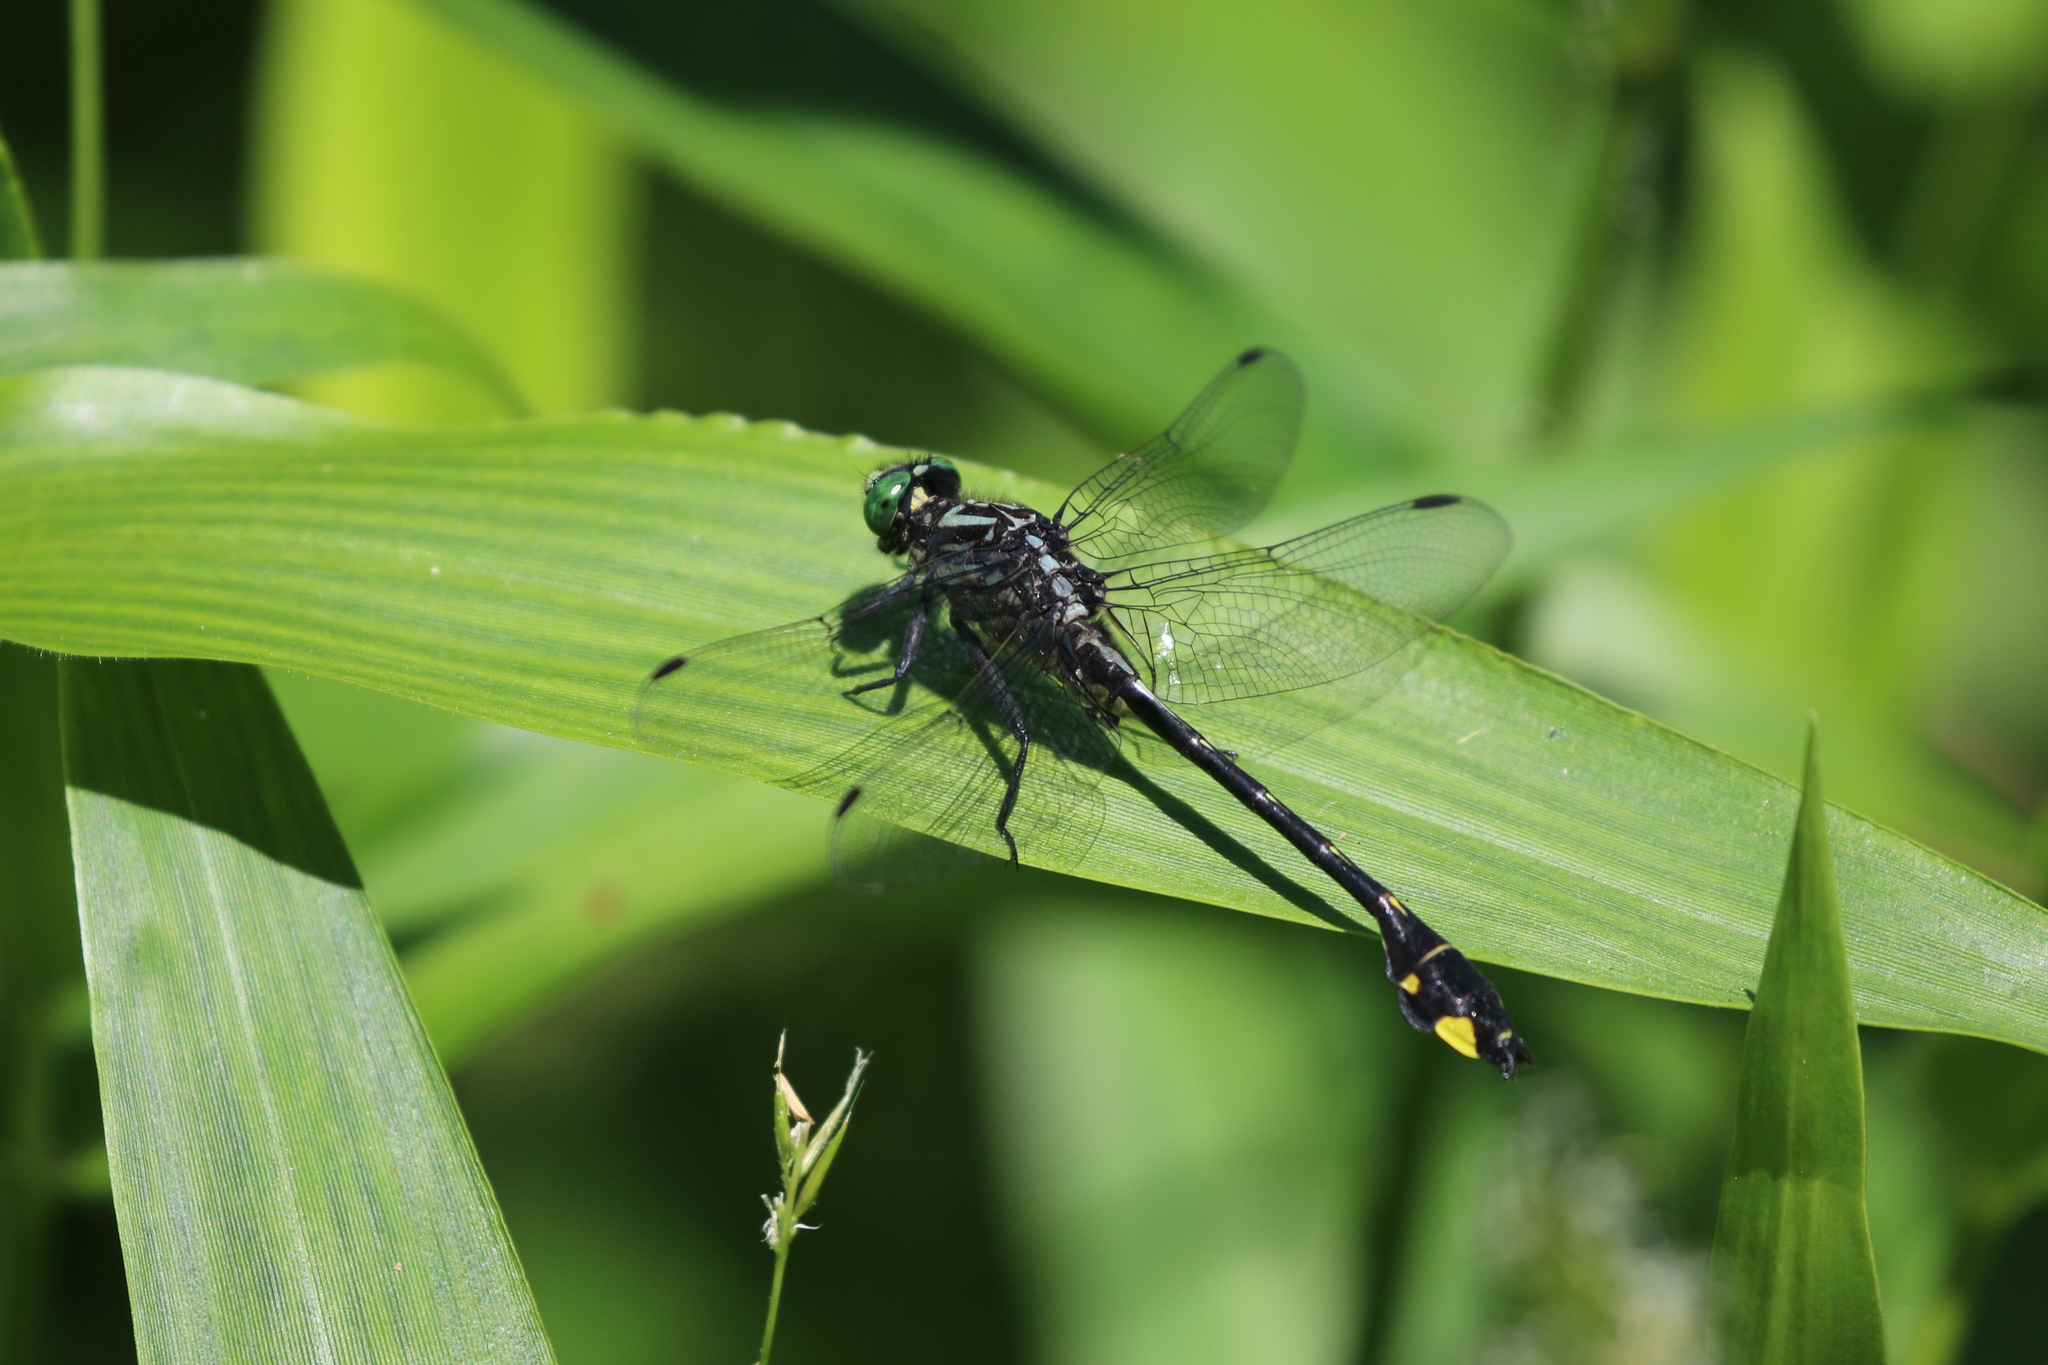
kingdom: Animalia
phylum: Arthropoda
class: Insecta
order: Odonata
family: Gomphidae
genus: Gomphurus
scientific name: Gomphurus vastus
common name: Cobra clubtail
